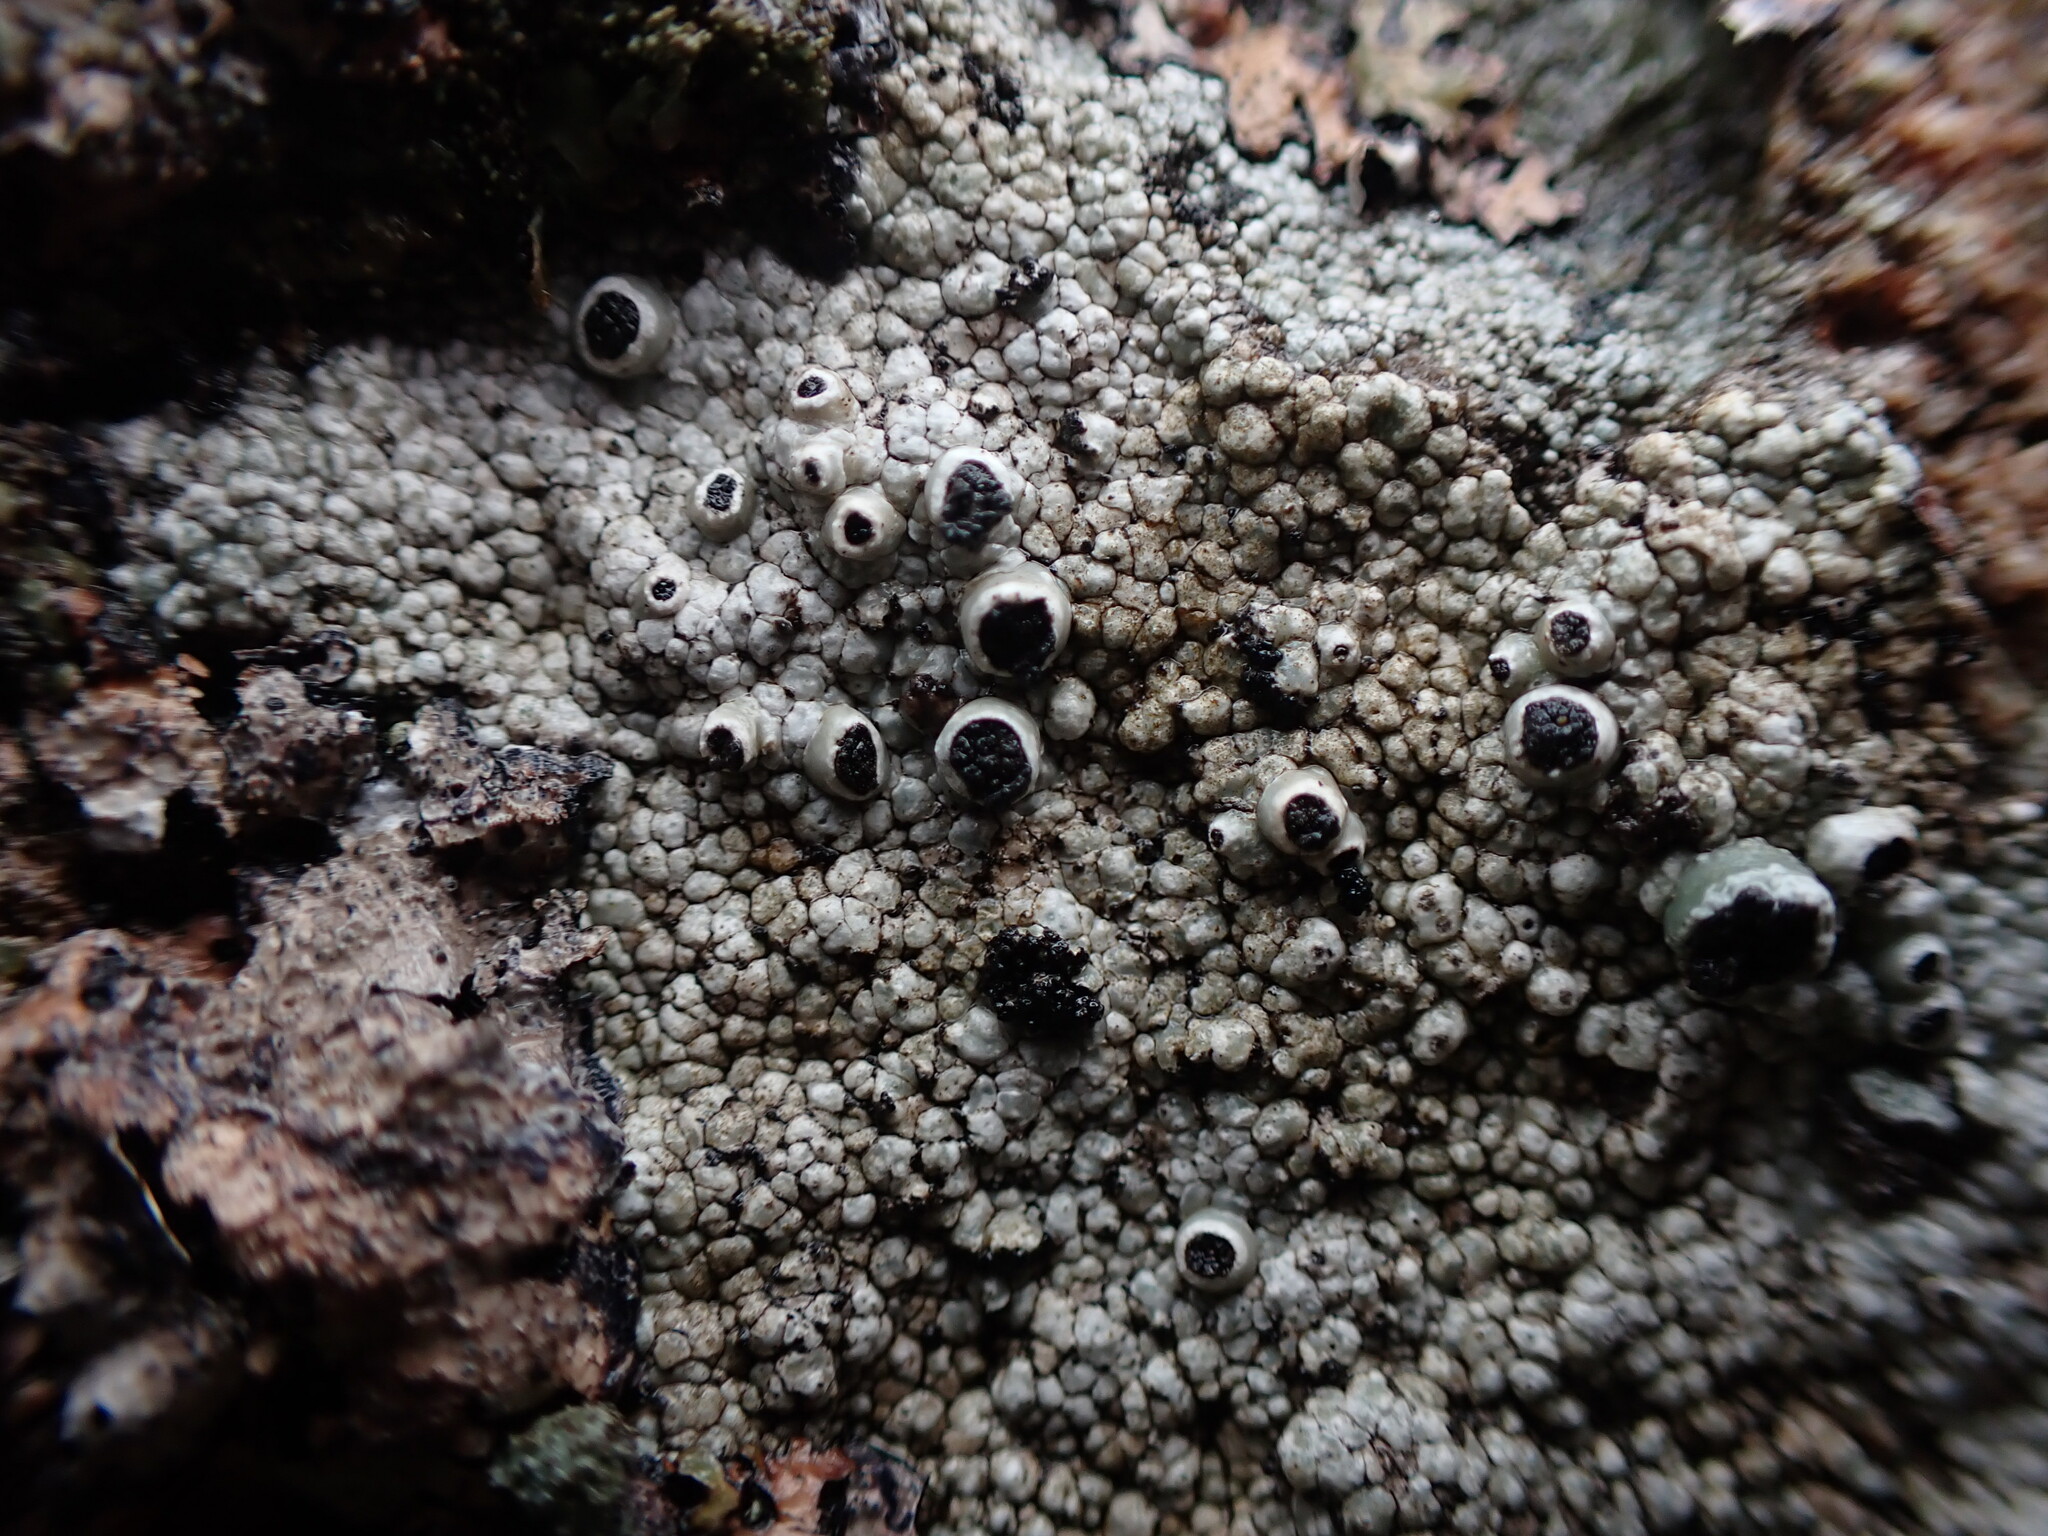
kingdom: Fungi
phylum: Ascomycota
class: Lecanoromycetes
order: Caliciales
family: Caliciaceae
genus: Thelomma
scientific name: Thelomma mammosum
